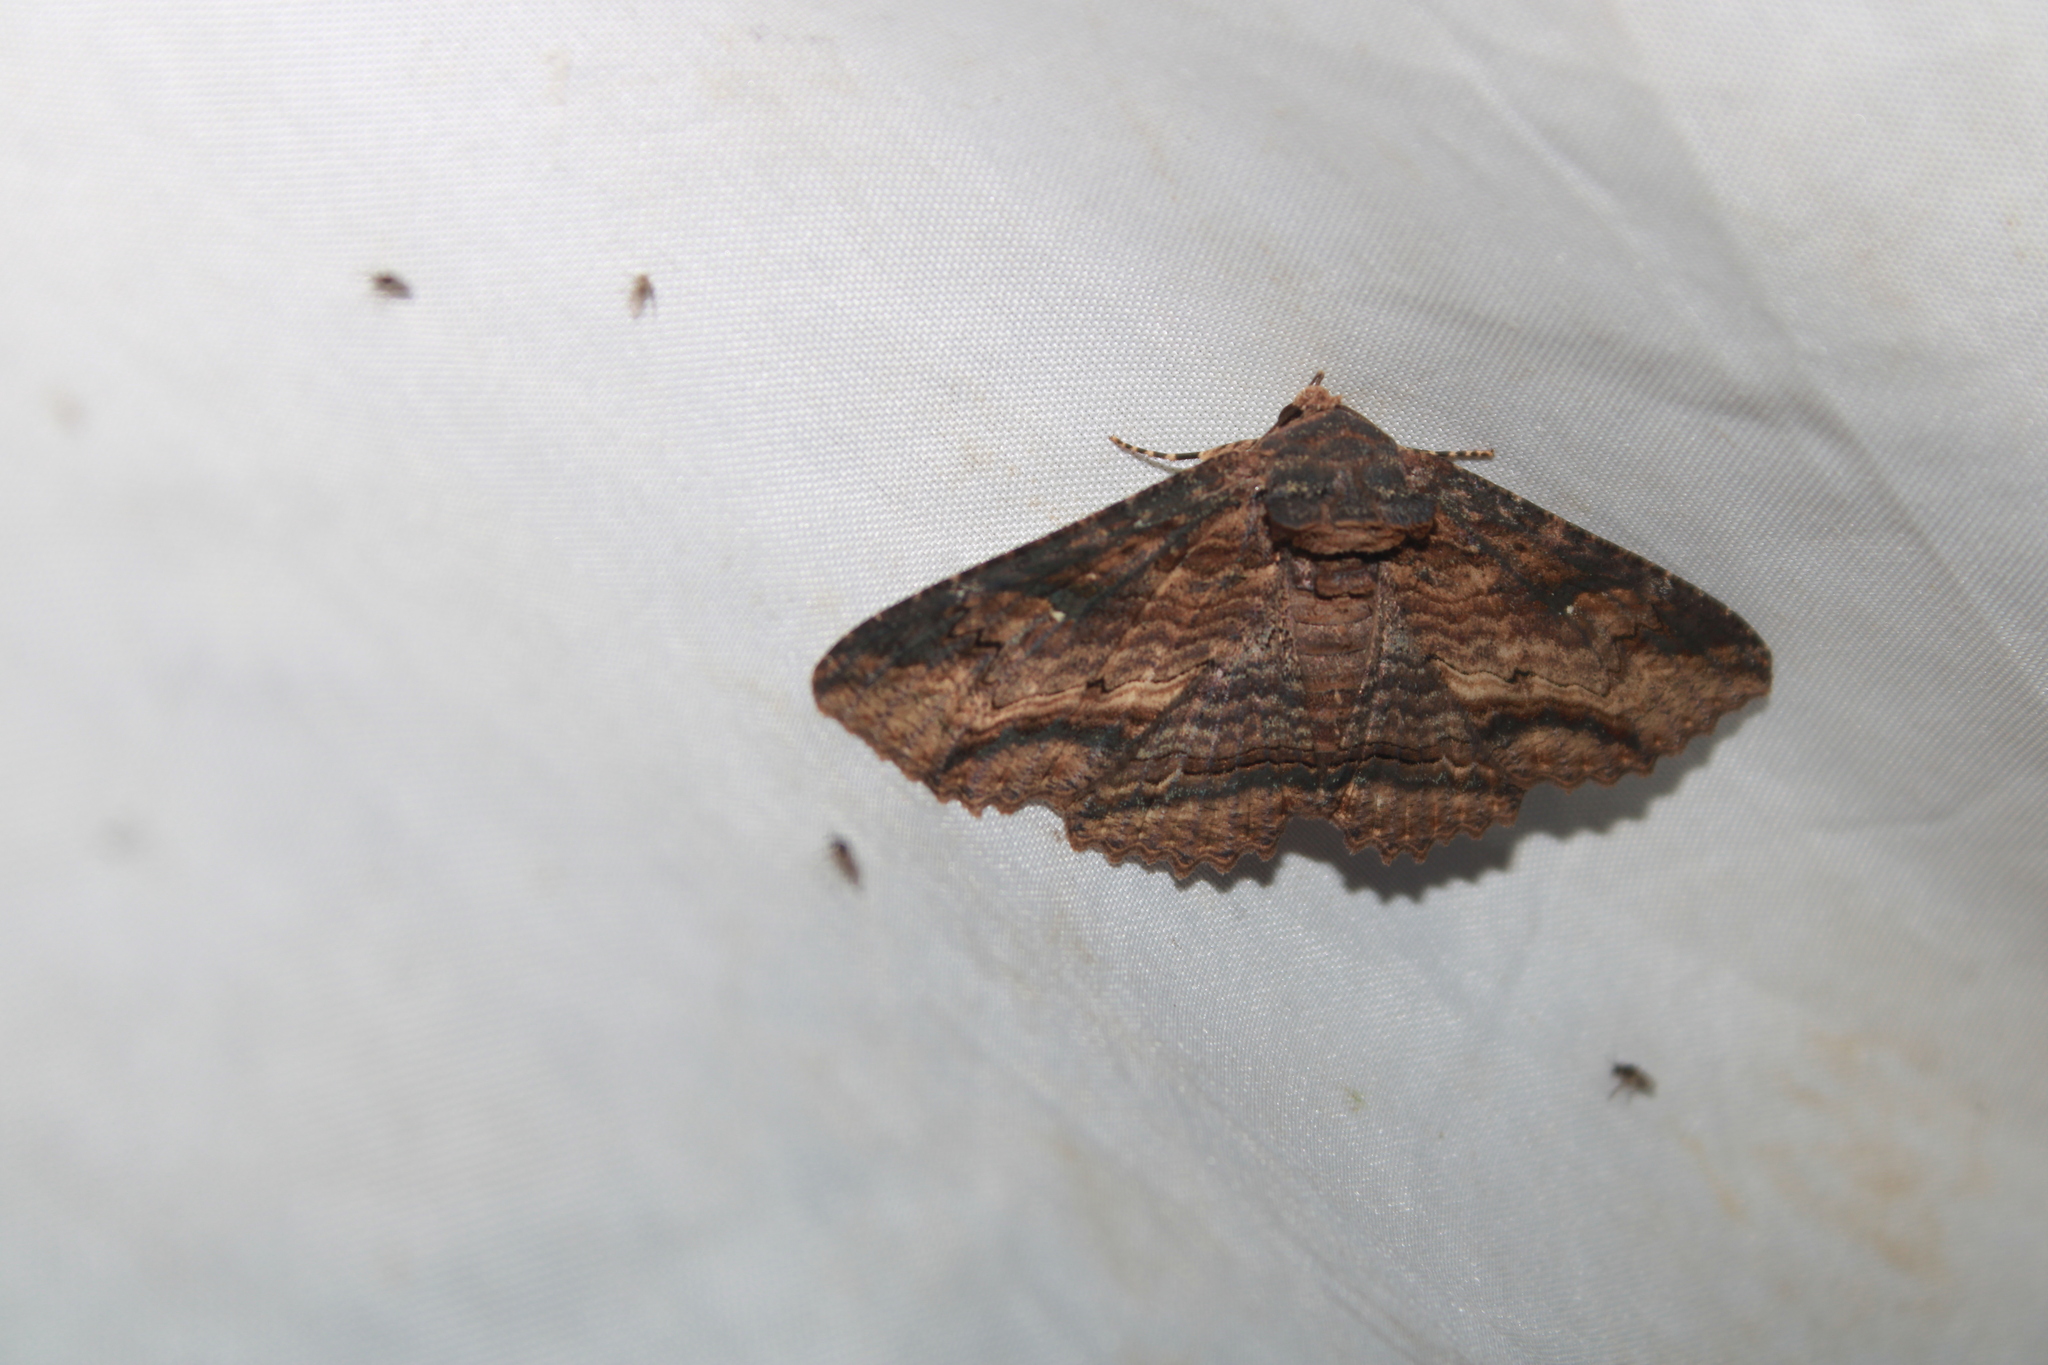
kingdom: Animalia
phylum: Arthropoda
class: Insecta
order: Lepidoptera
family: Erebidae
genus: Zale
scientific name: Zale lunata
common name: Lunate zale moth
